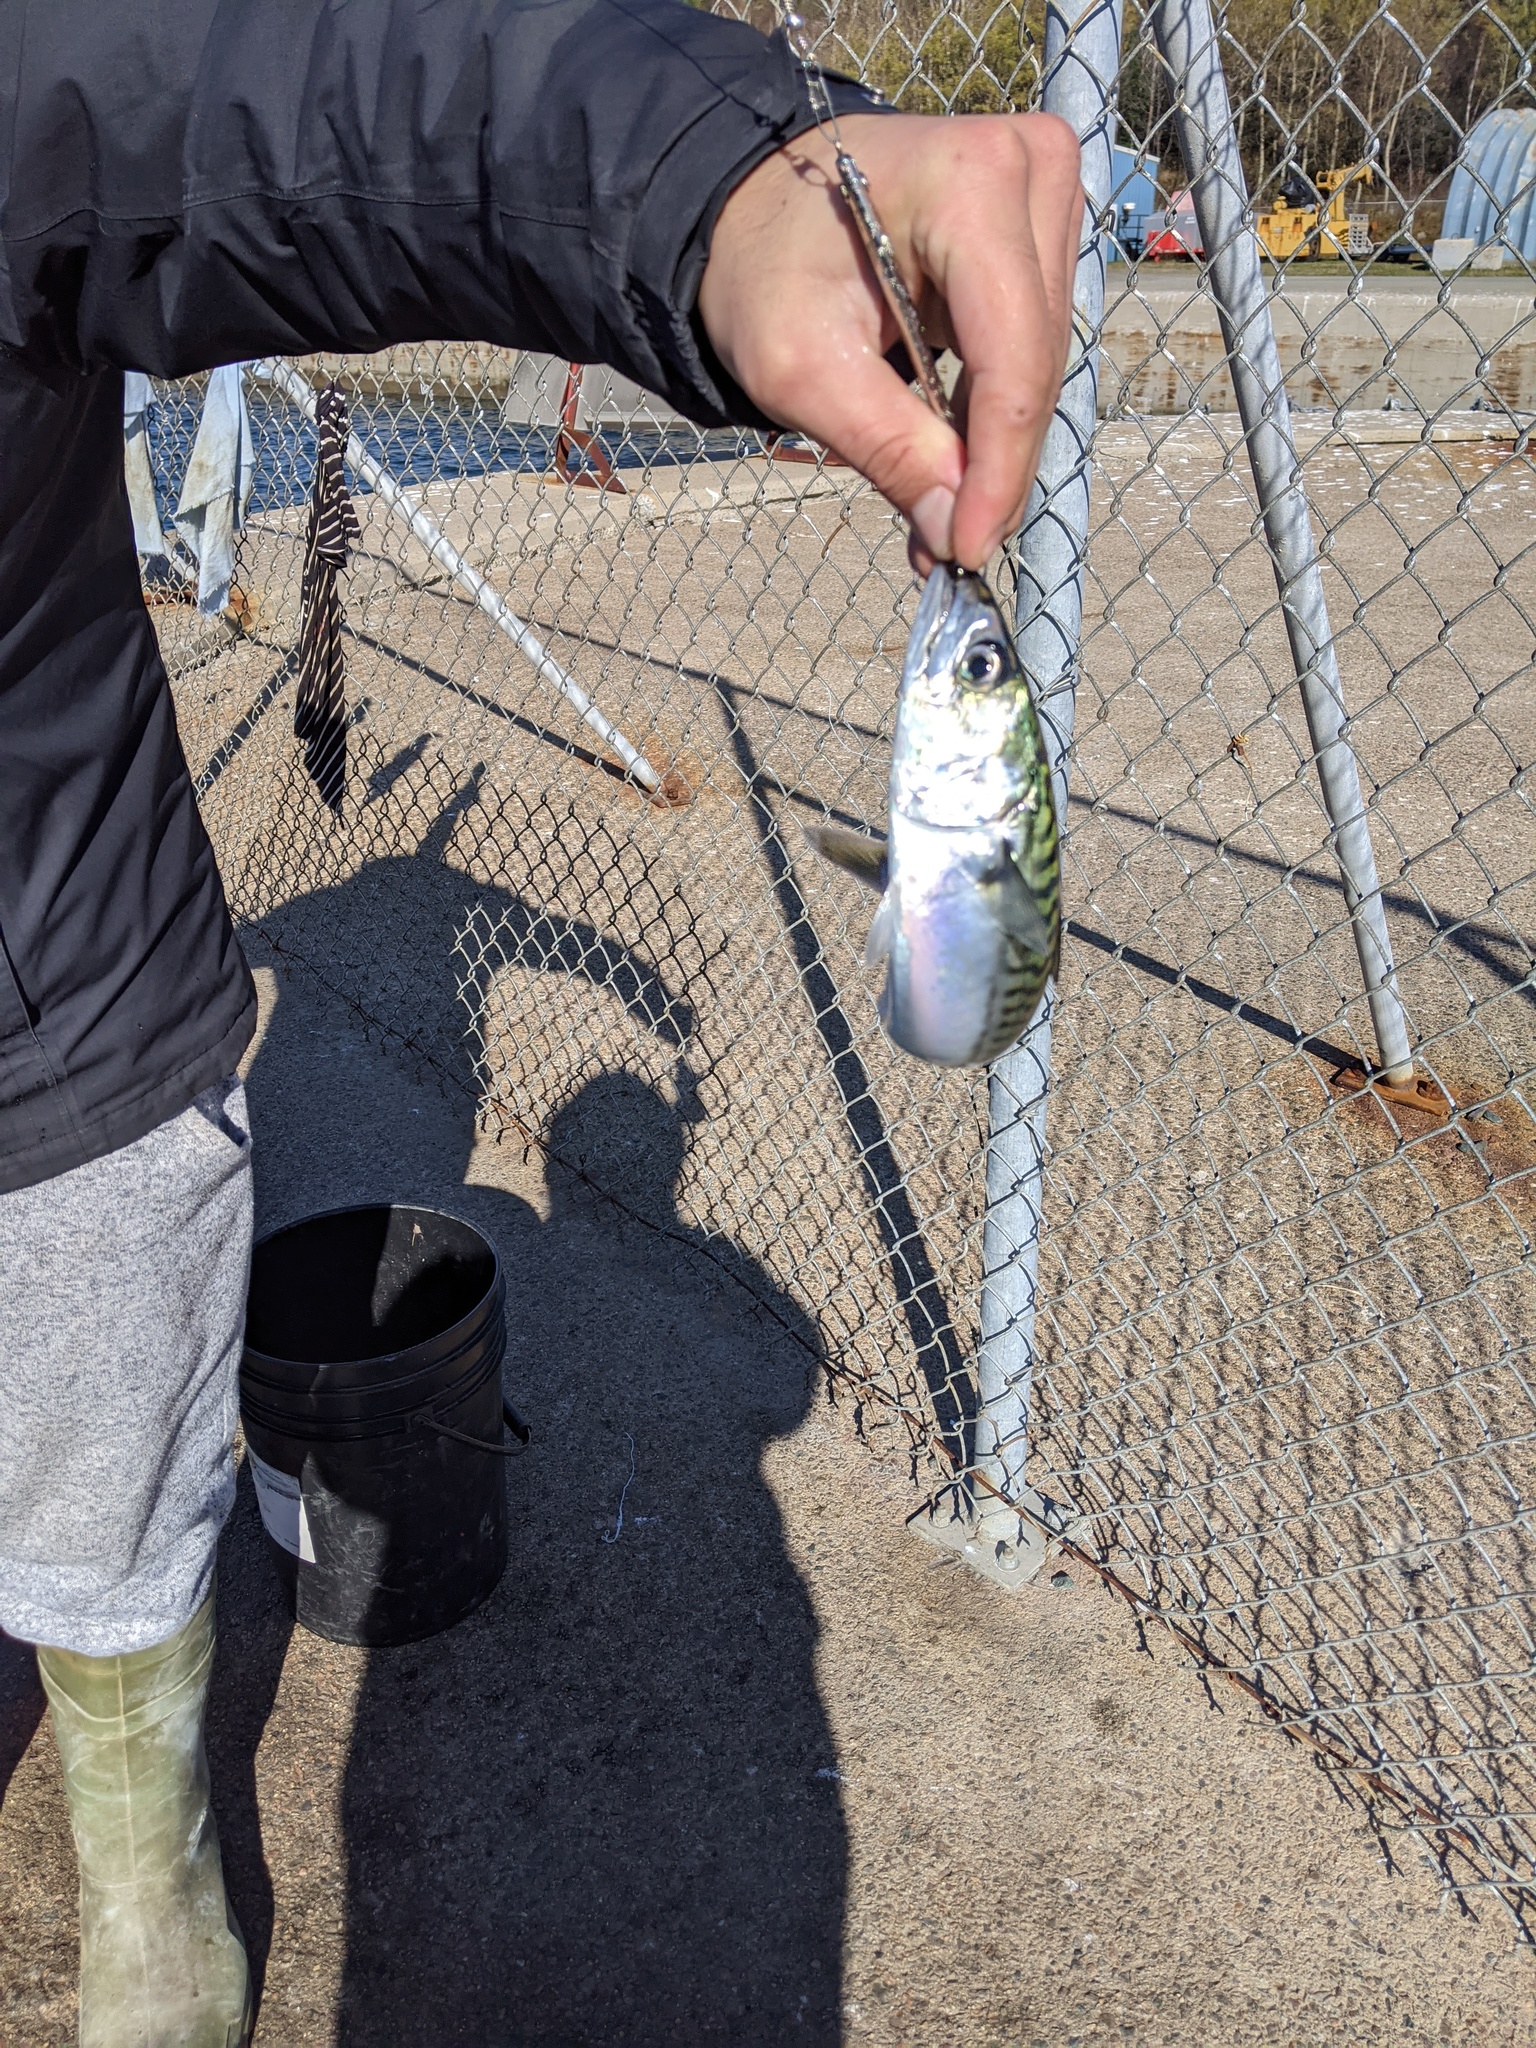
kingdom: Animalia
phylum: Chordata
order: Perciformes
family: Scombridae
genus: Scomber
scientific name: Scomber scombrus
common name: Mackerel
